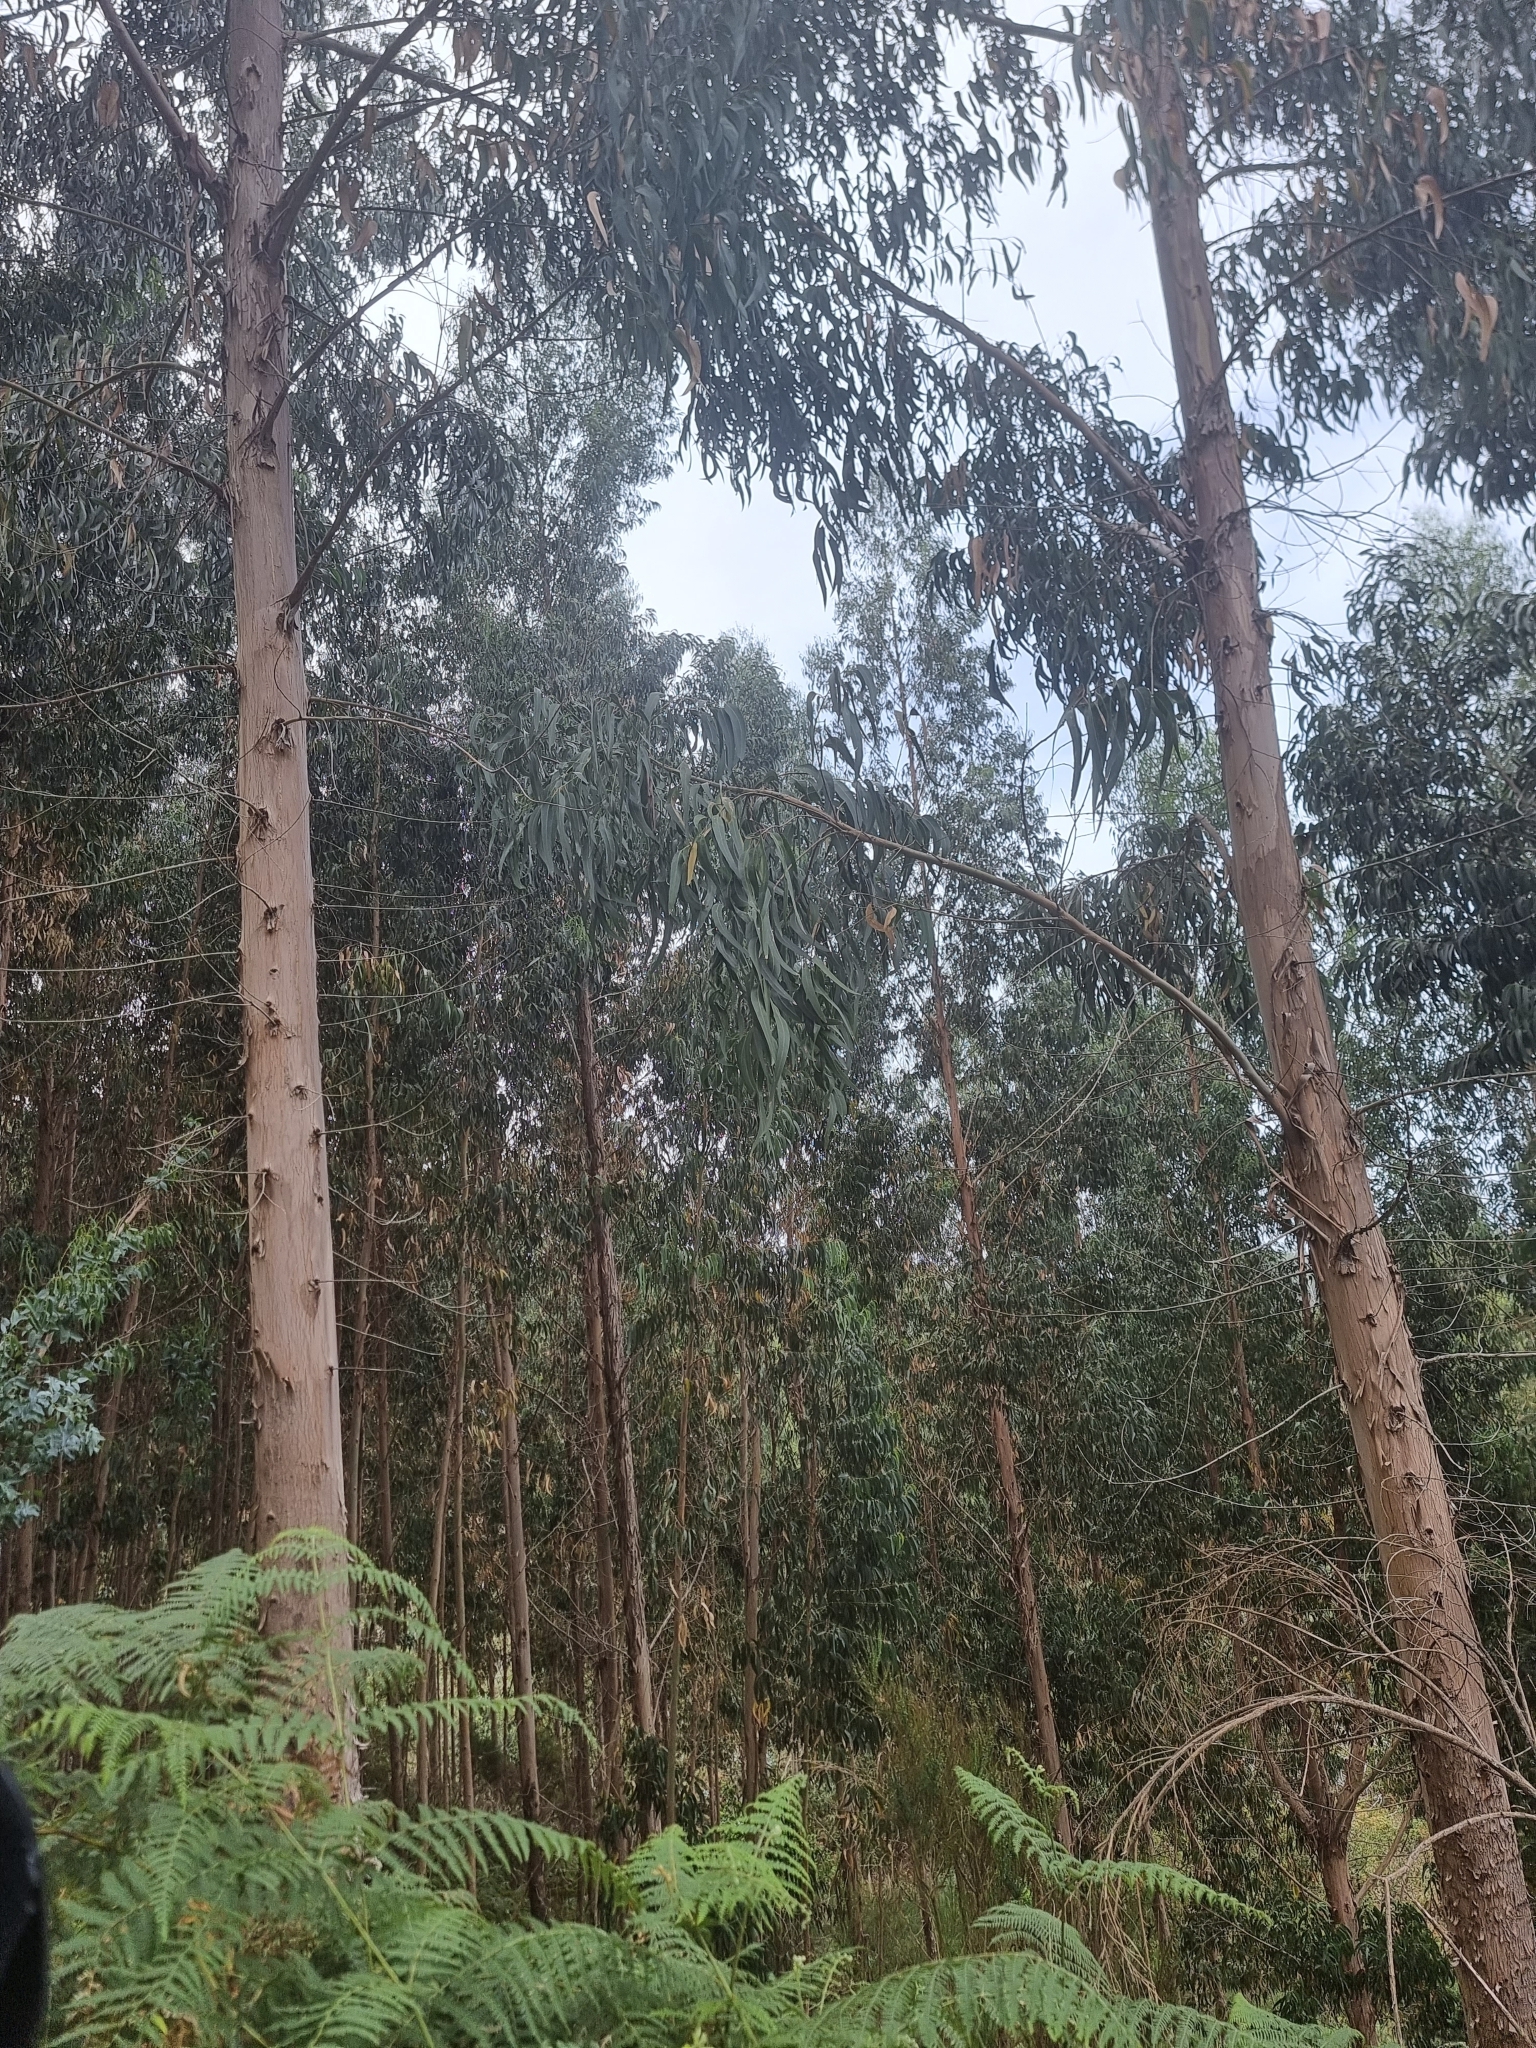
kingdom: Plantae
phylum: Tracheophyta
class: Magnoliopsida
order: Myrtales
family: Myrtaceae
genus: Eucalyptus
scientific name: Eucalyptus globulus
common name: Southern blue-gum
